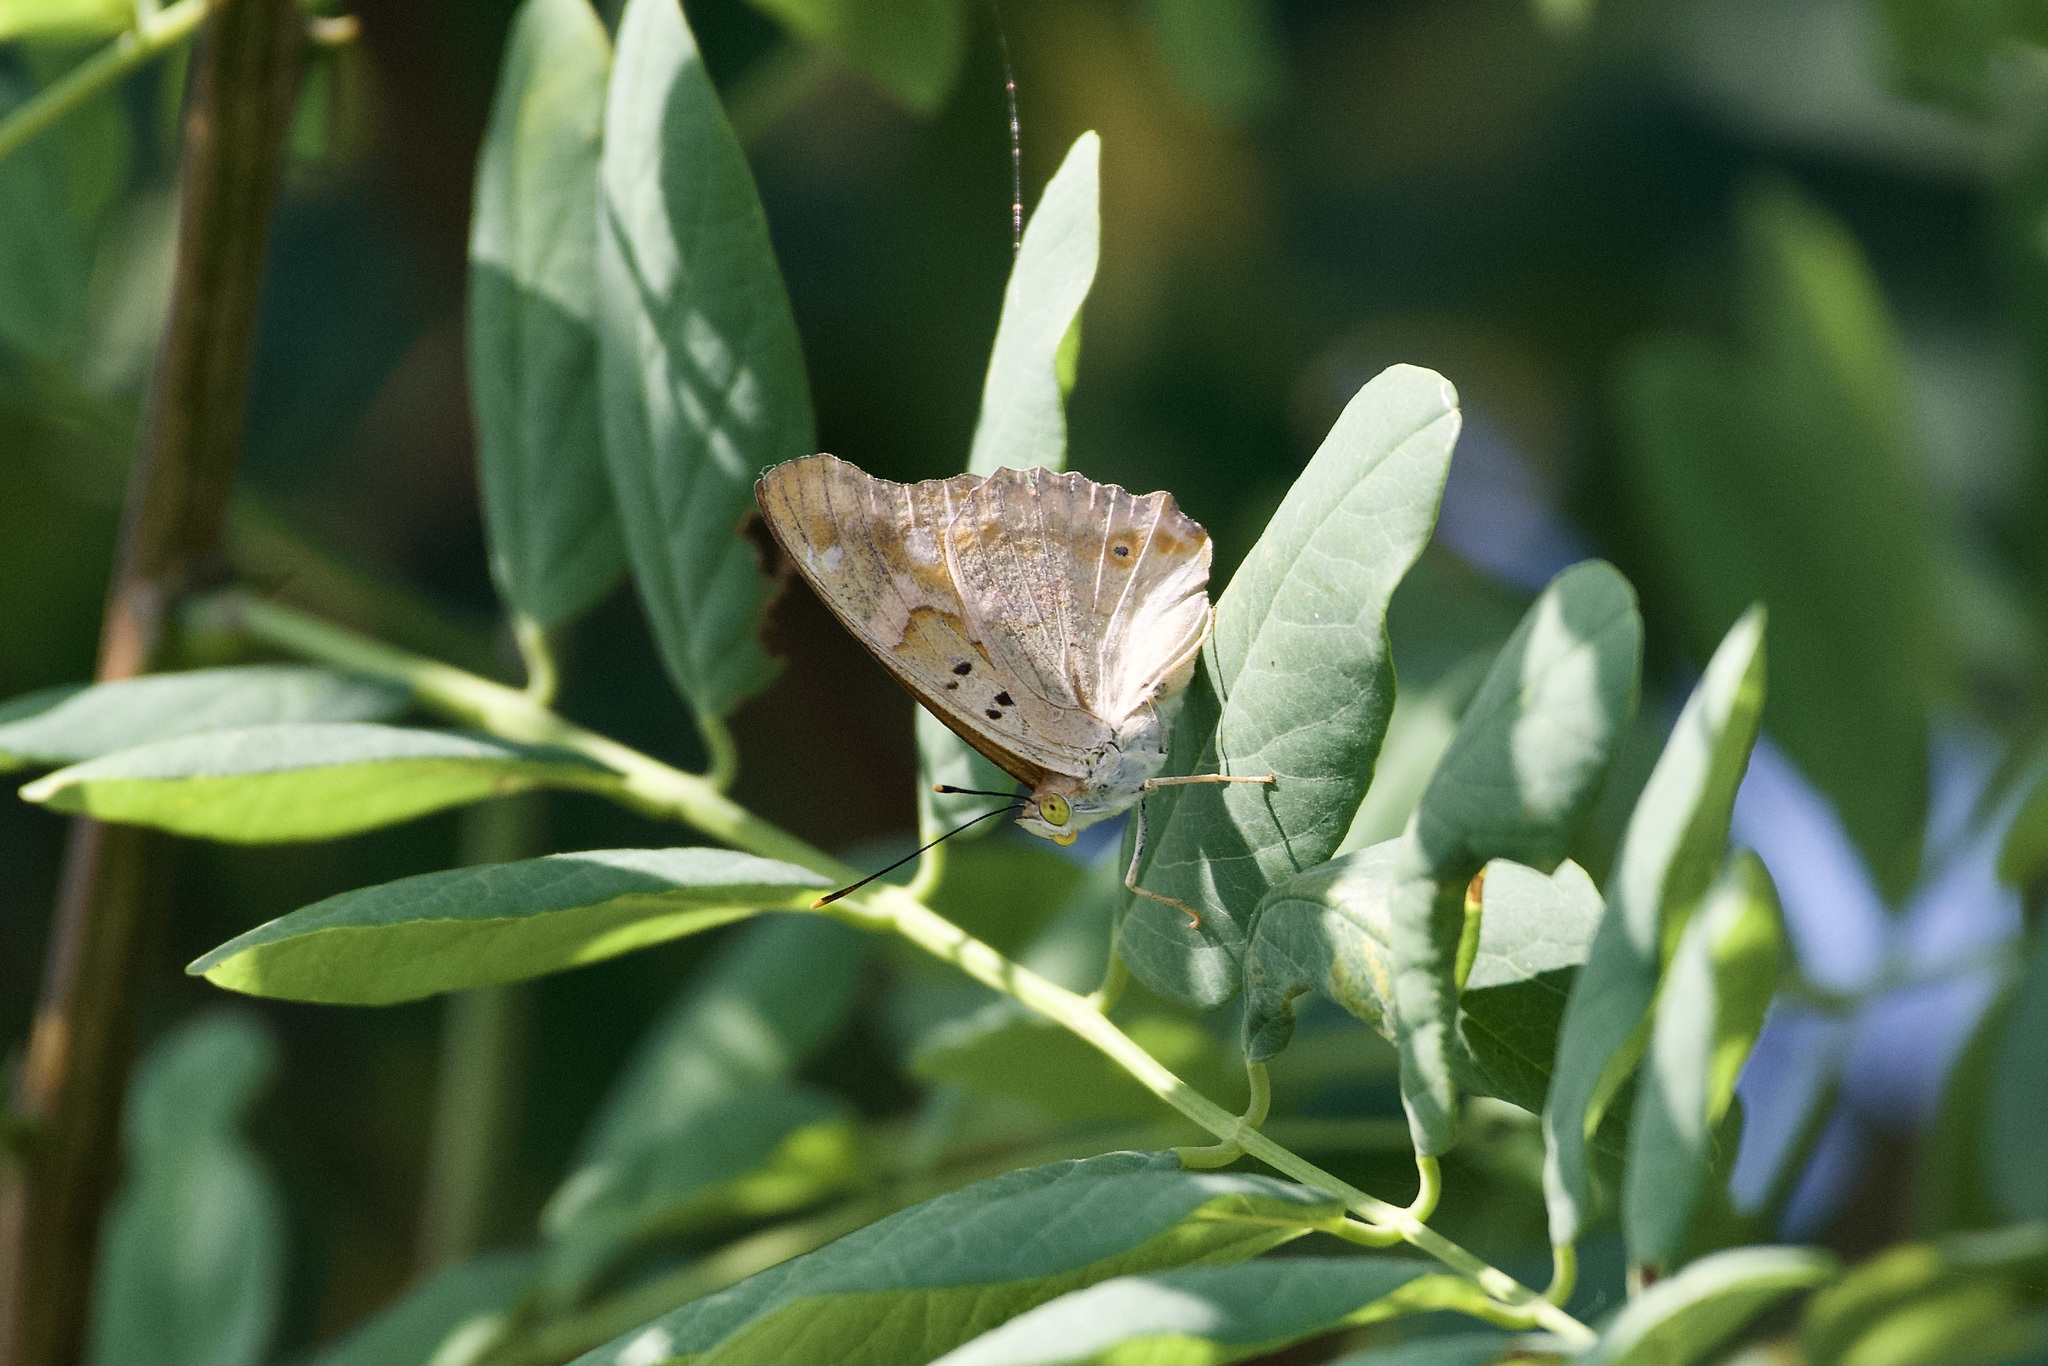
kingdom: Animalia
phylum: Arthropoda
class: Insecta
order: Lepidoptera
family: Nymphalidae
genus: Apatura
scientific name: Apatura ilia
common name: Lesser purple emperor
